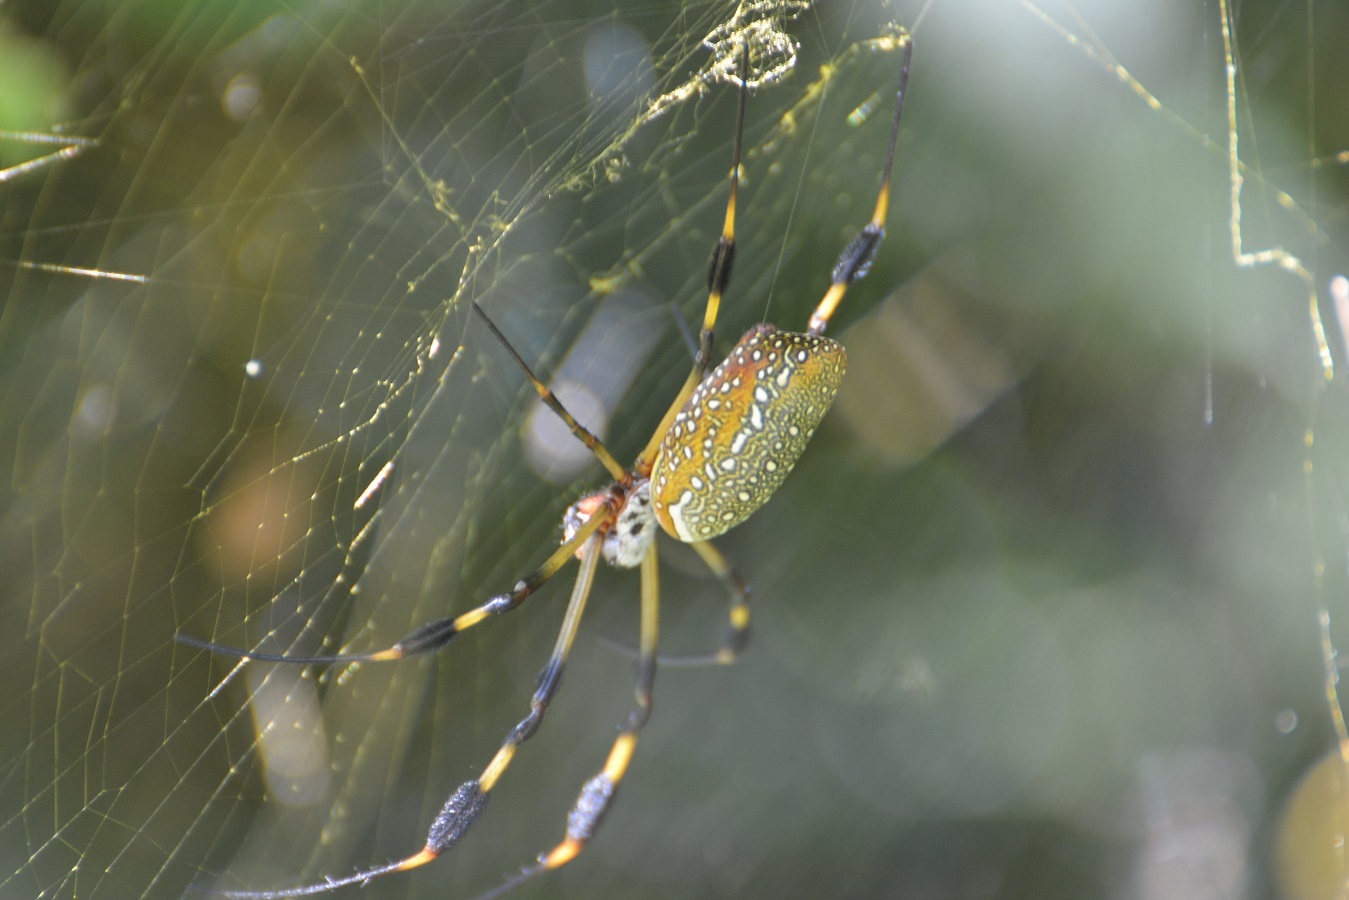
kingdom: Animalia
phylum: Arthropoda
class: Arachnida
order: Araneae
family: Araneidae
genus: Trichonephila
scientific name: Trichonephila clavipes
